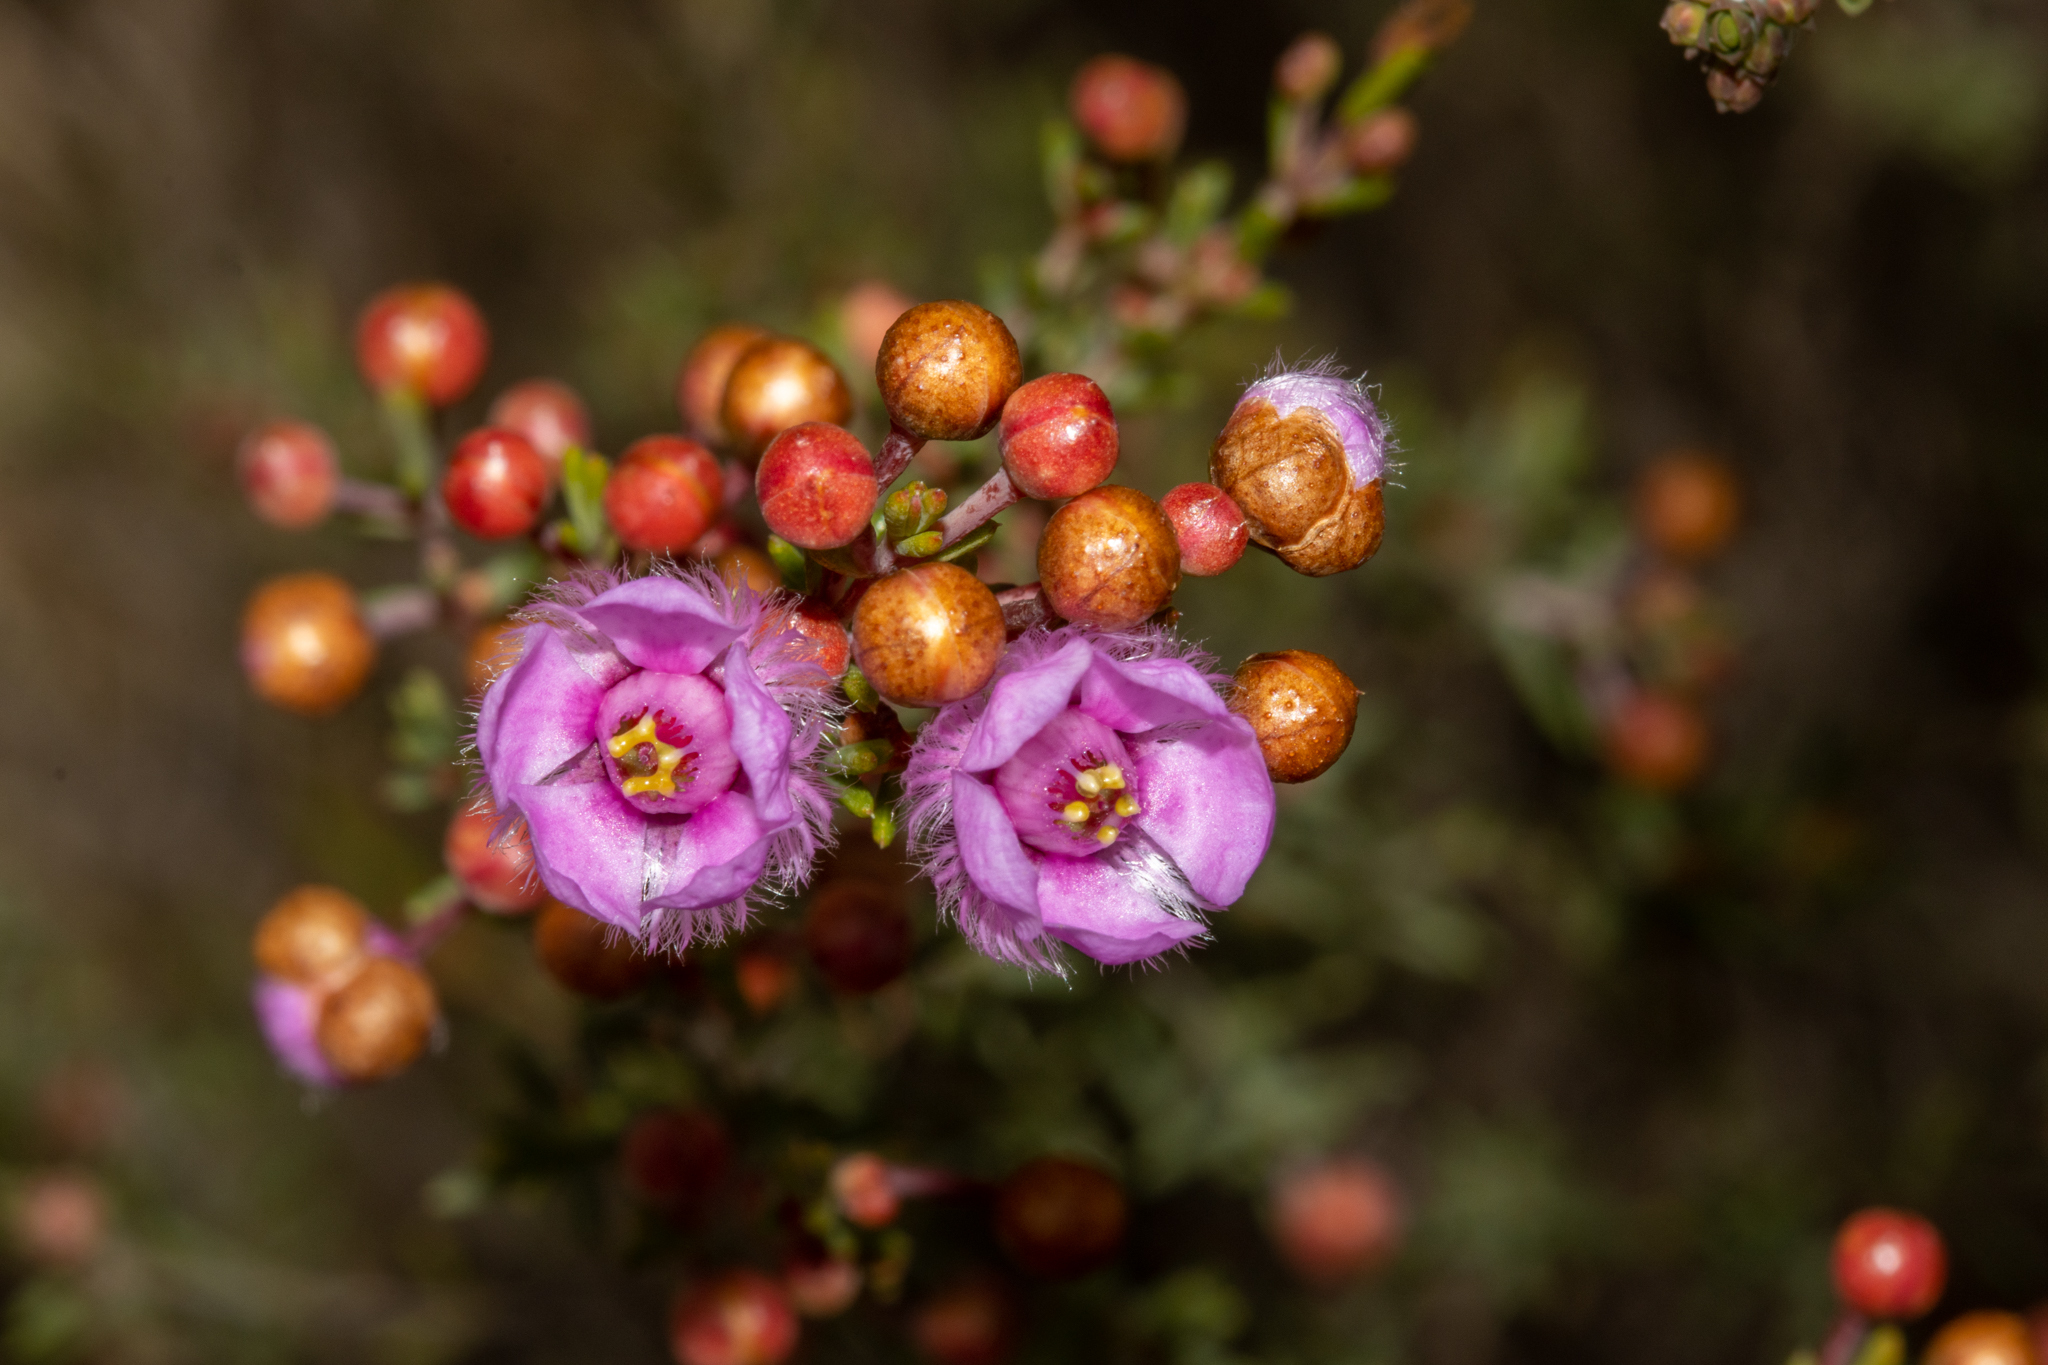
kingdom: Plantae
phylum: Tracheophyta
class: Magnoliopsida
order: Myrtales
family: Myrtaceae
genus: Verticordia
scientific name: Verticordia picta
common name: Painted feather-flower
